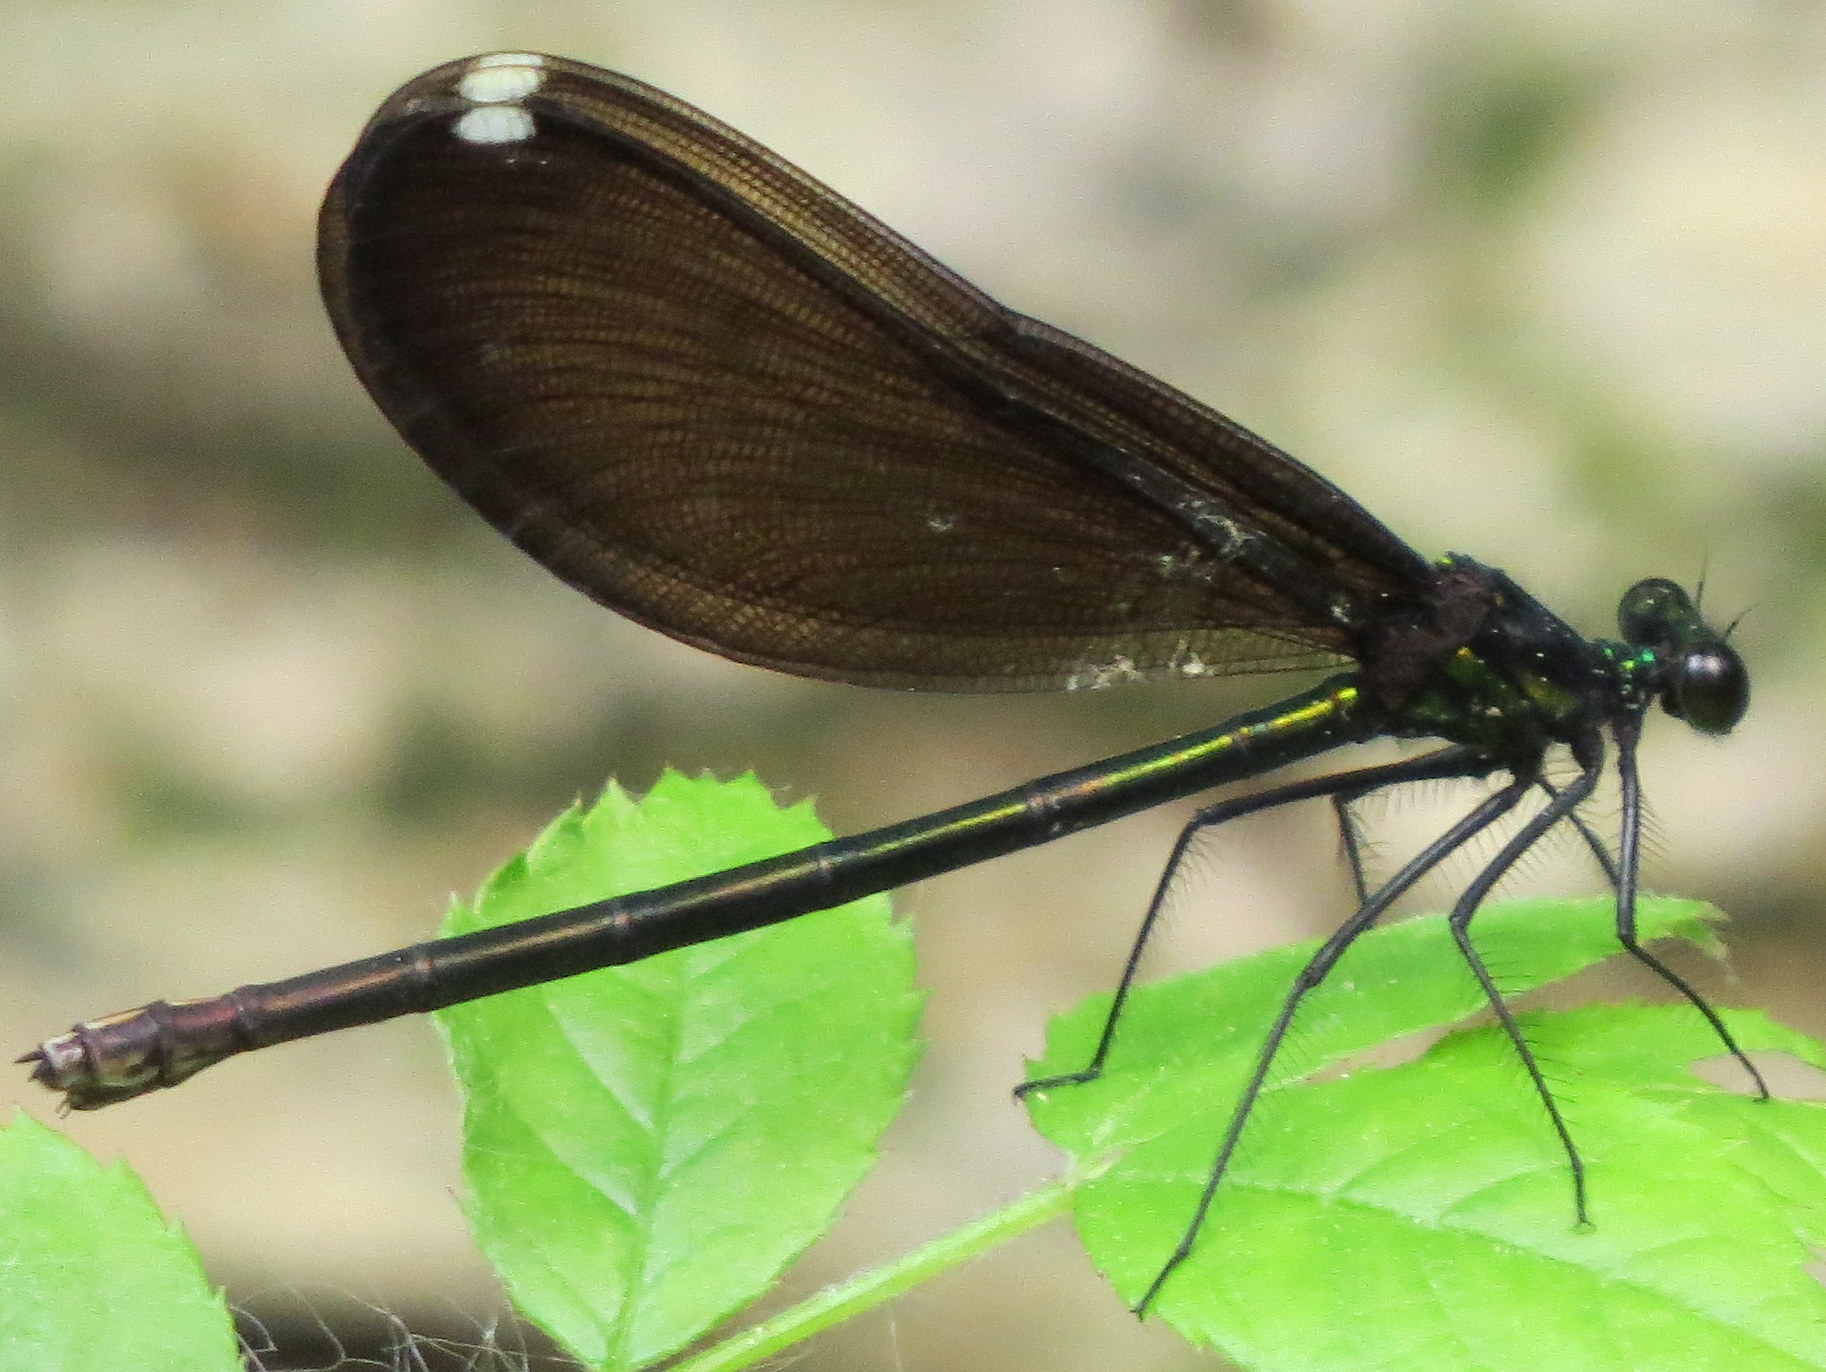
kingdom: Animalia
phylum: Arthropoda
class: Insecta
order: Odonata
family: Calopterygidae
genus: Calopteryx
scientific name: Calopteryx maculata
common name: Ebony jewelwing
